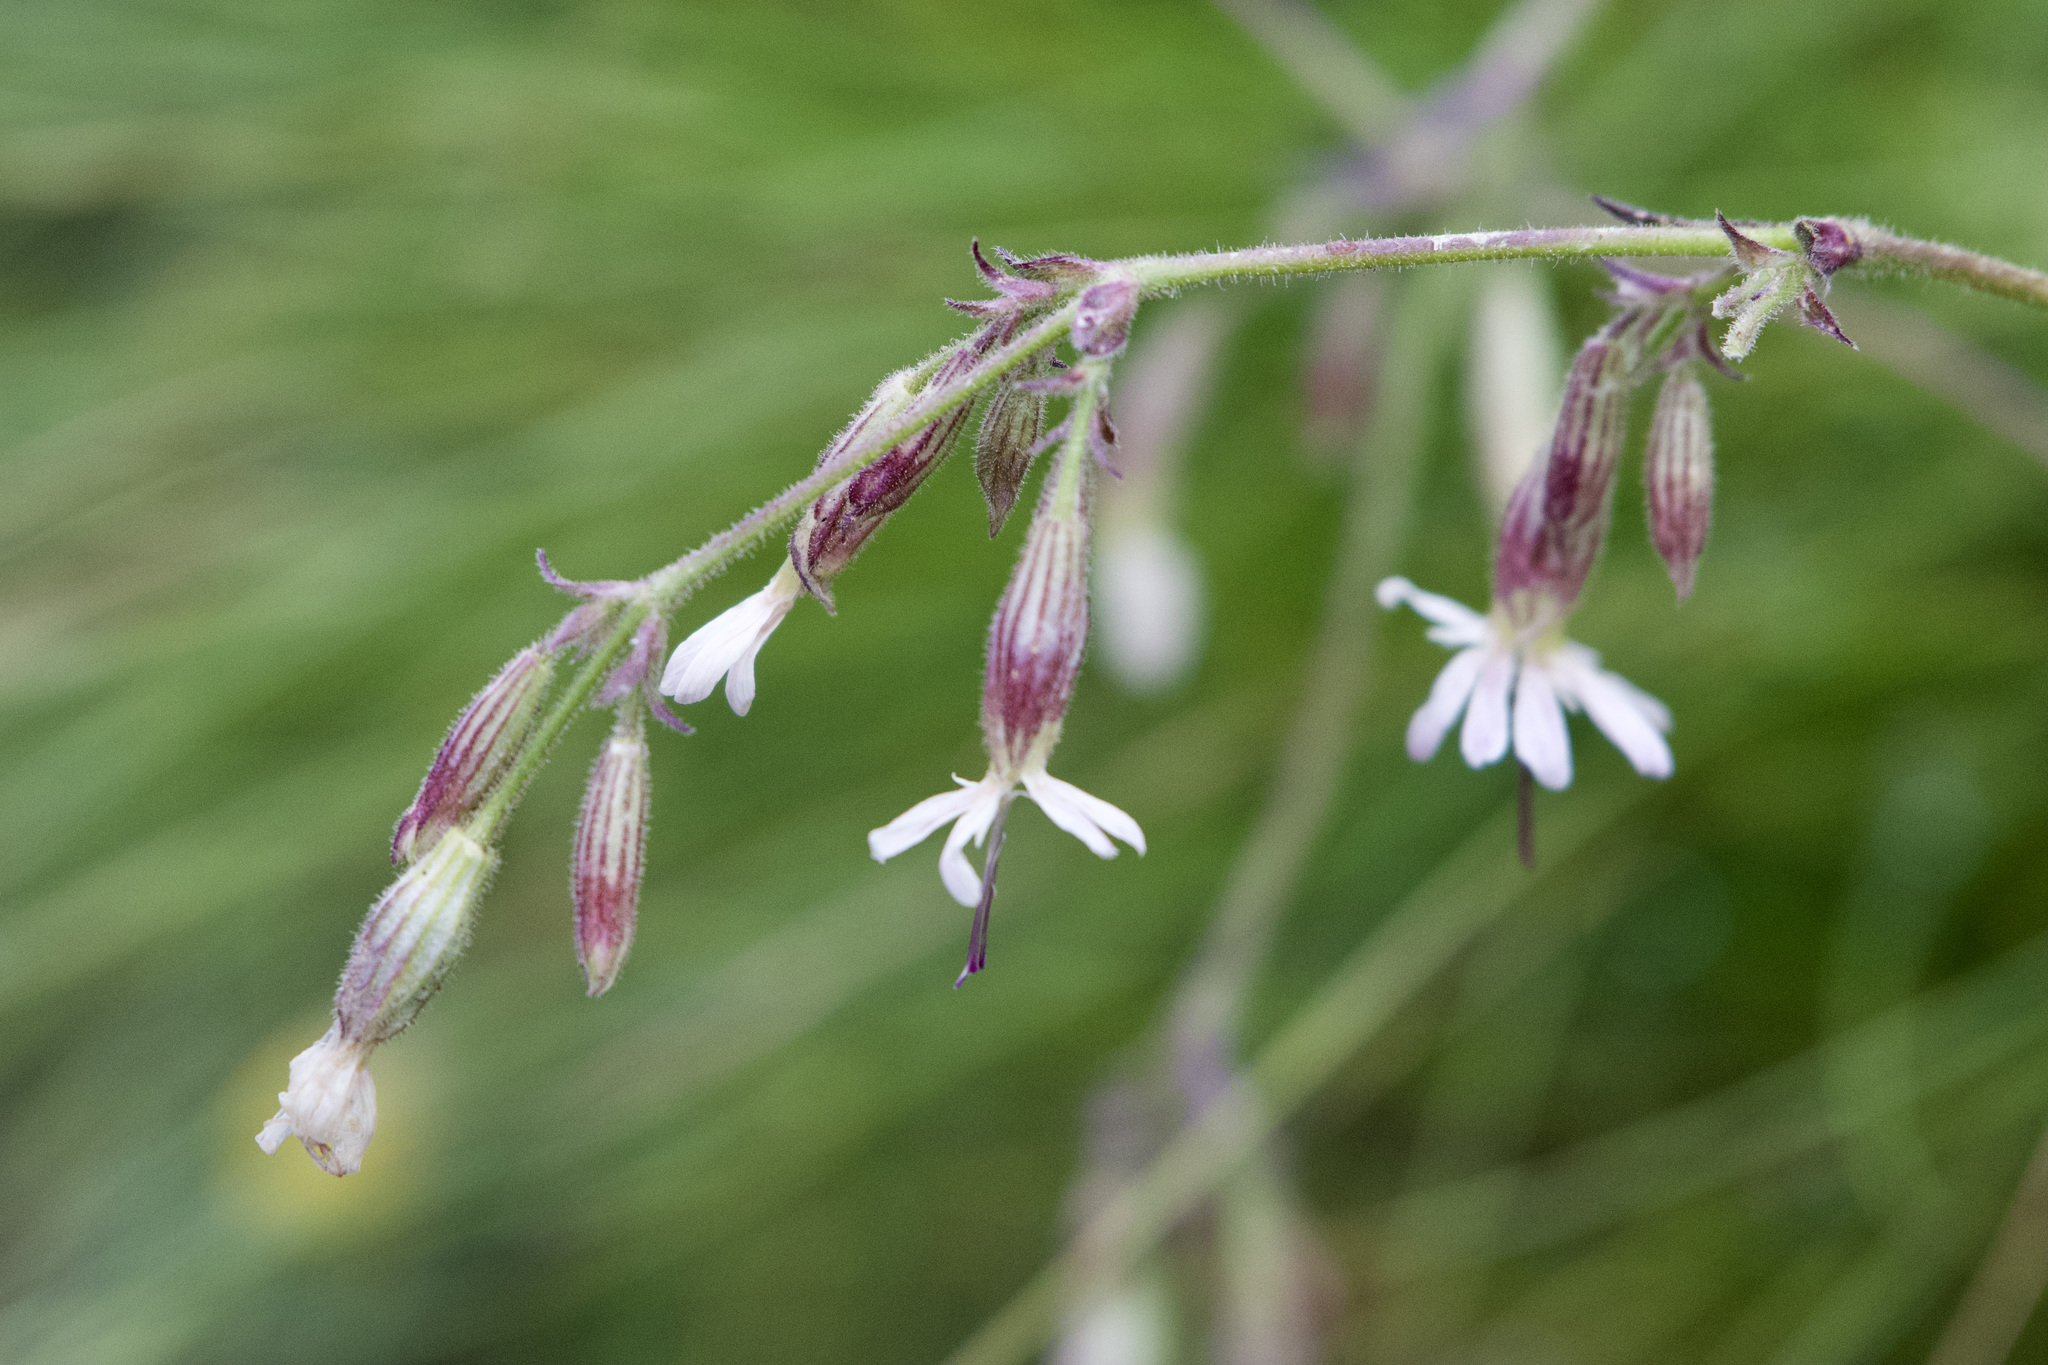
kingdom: Plantae
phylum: Tracheophyta
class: Magnoliopsida
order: Caryophyllales
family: Caryophyllaceae
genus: Silene
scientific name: Silene nutans
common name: Nottingham catchfly
